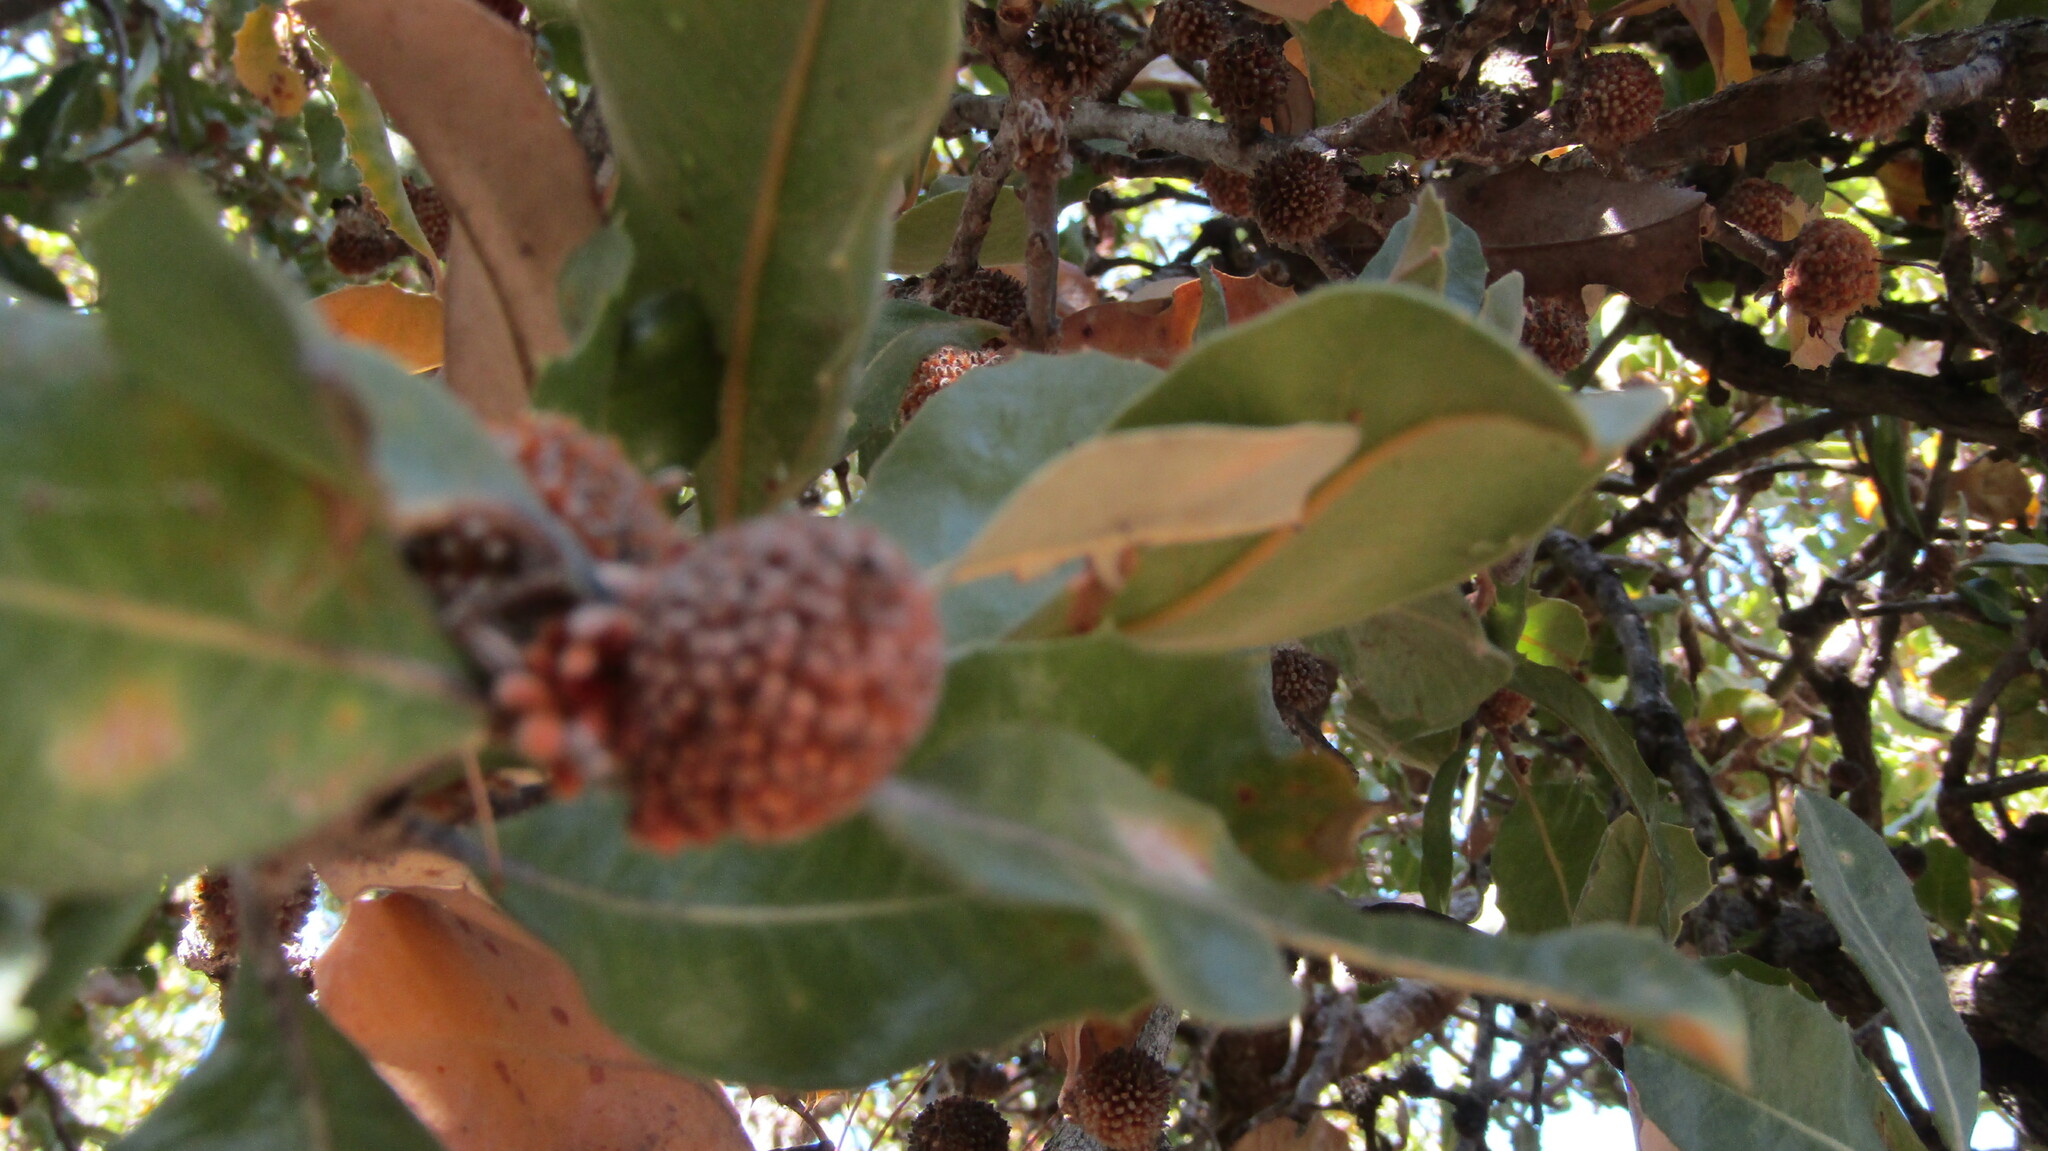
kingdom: Plantae
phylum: Tracheophyta
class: Magnoliopsida
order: Proteales
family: Proteaceae
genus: Banksia
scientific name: Banksia ilicifolia
